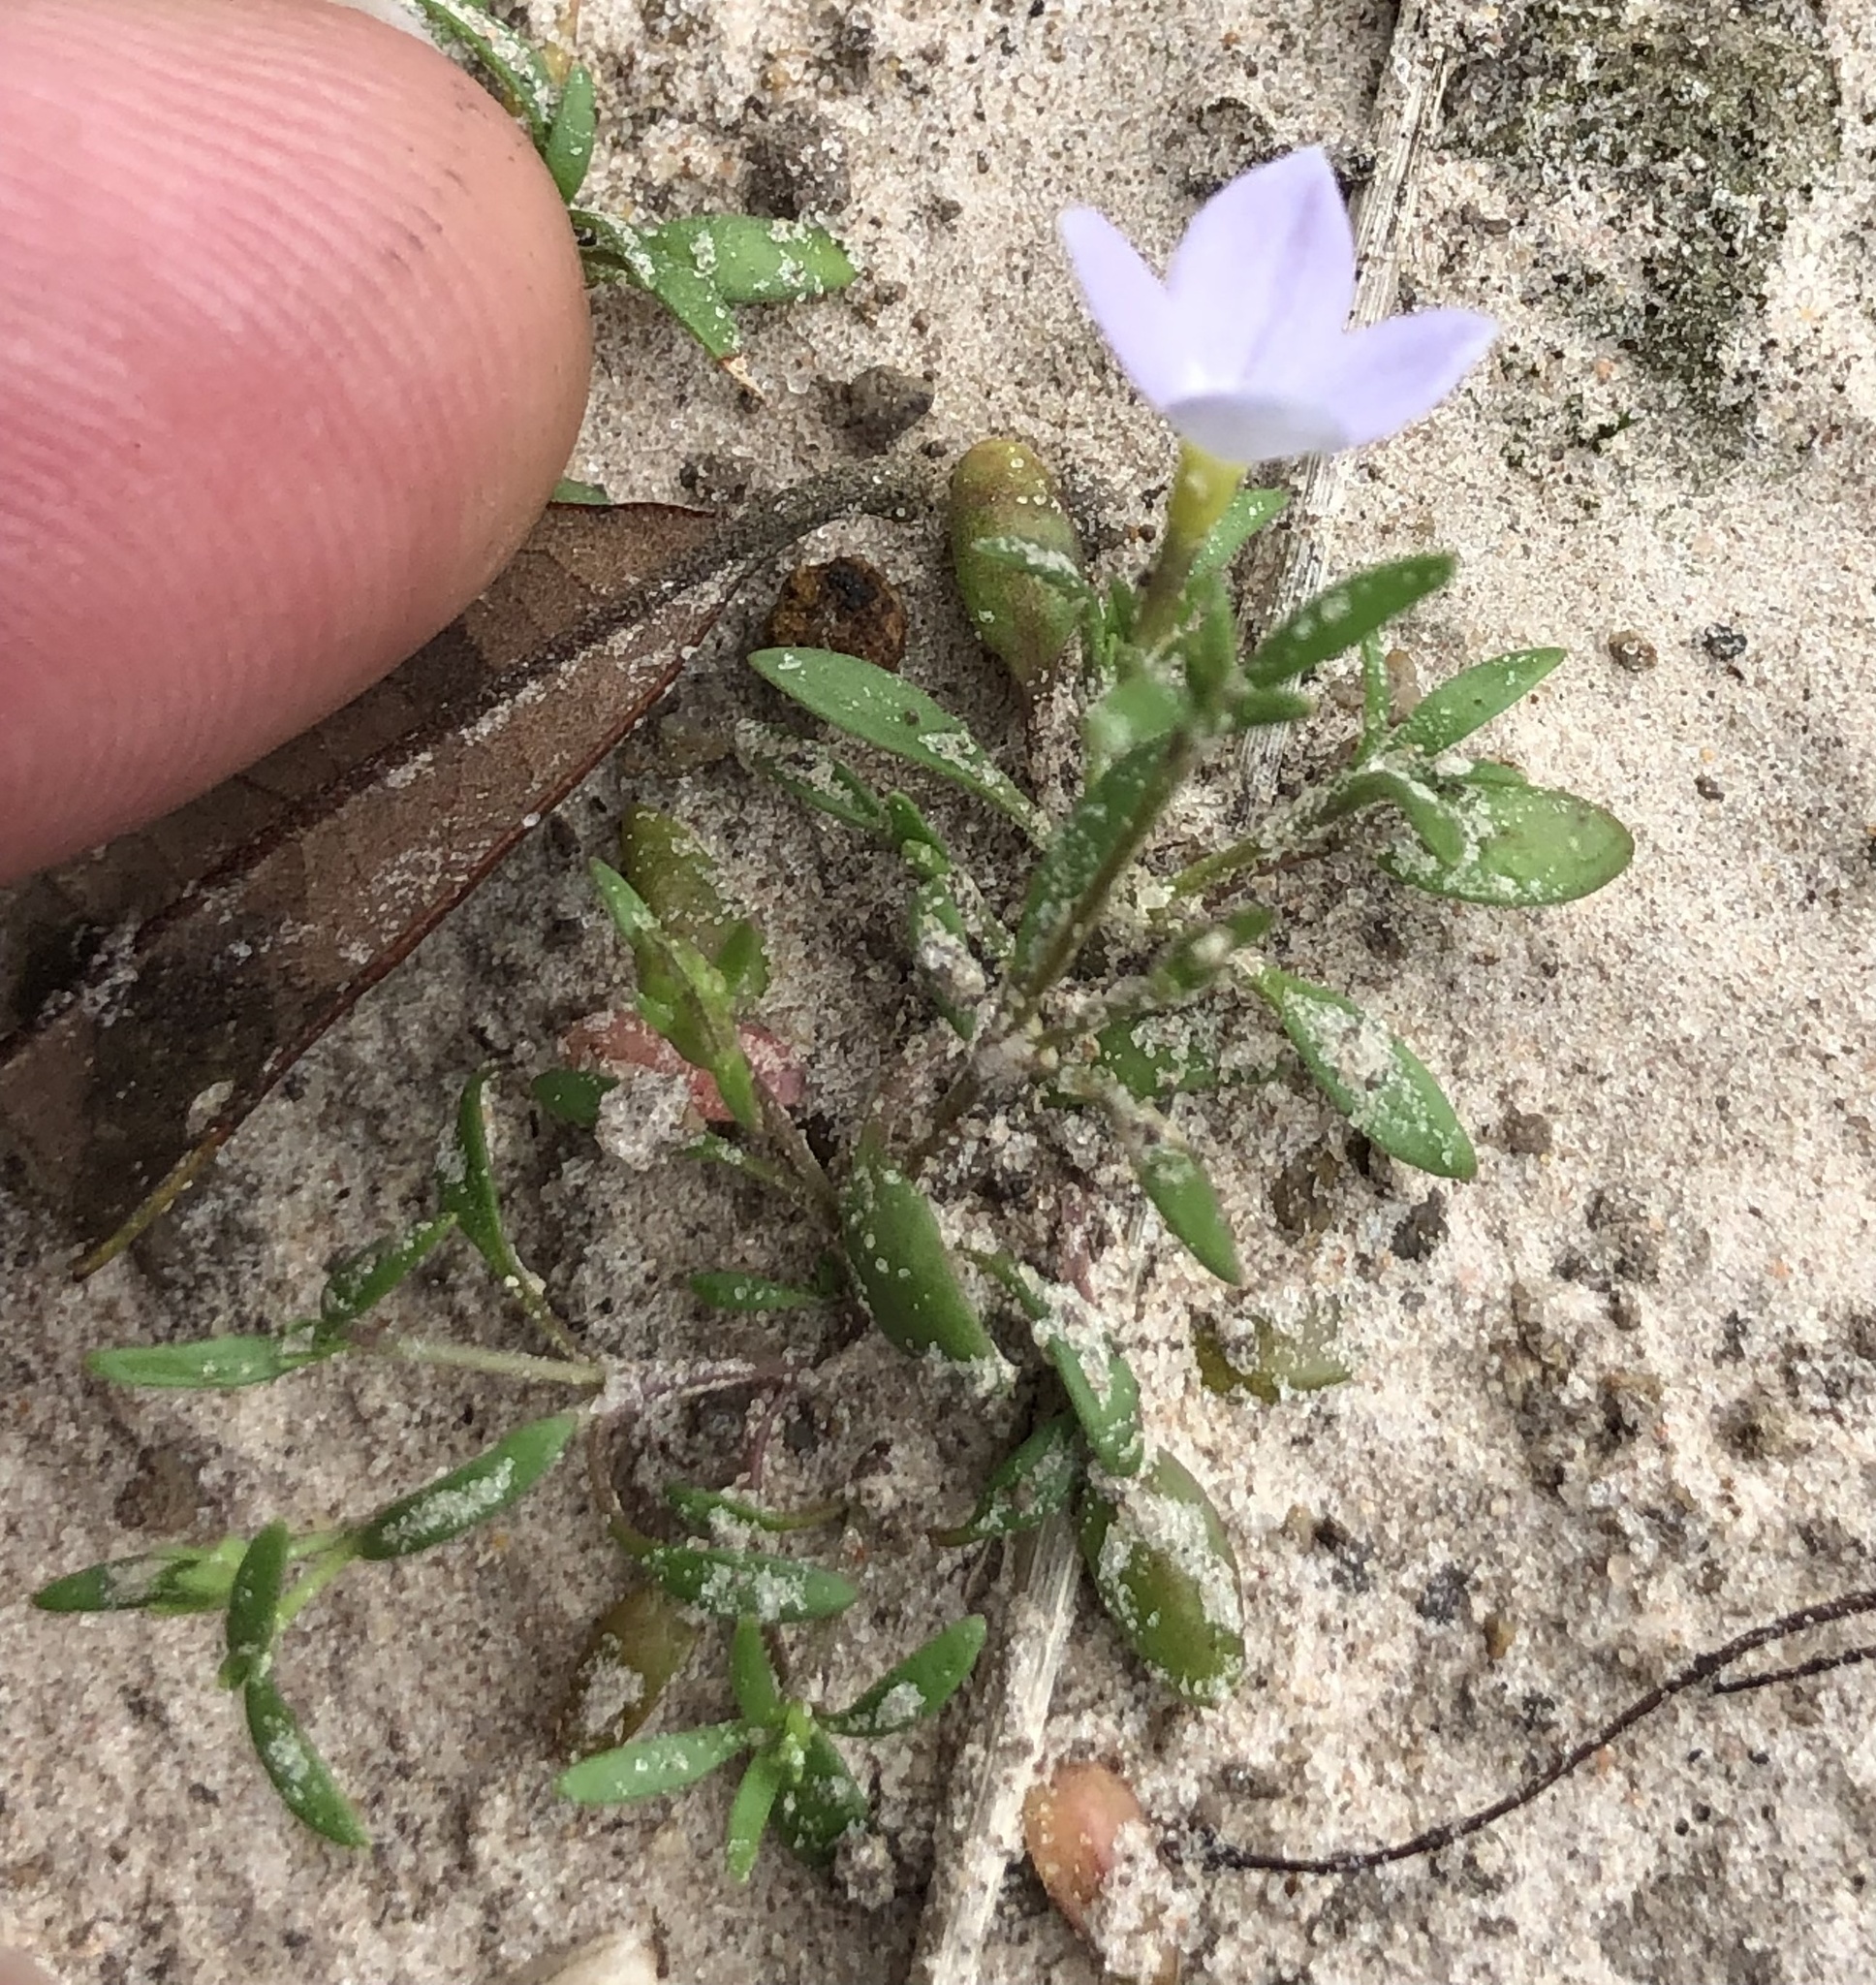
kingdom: Plantae
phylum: Tracheophyta
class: Magnoliopsida
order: Gentianales
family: Rubiaceae
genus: Houstonia
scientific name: Houstonia rosea
